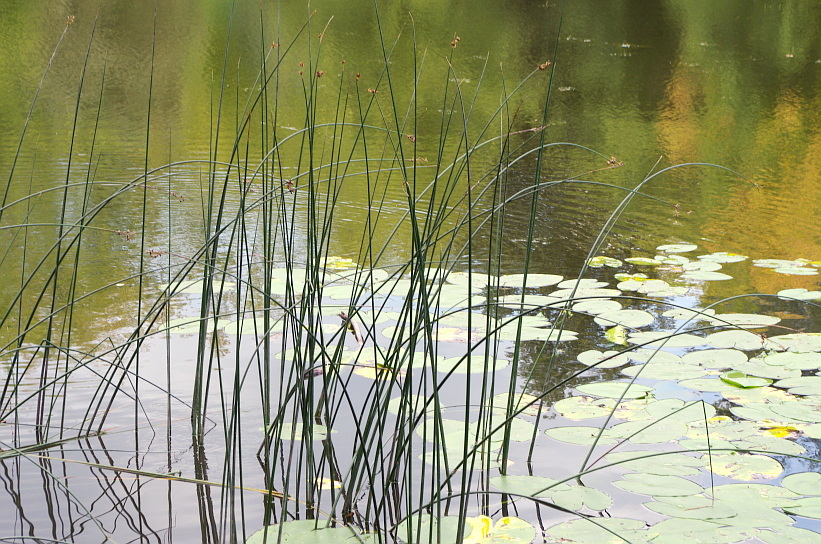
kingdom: Plantae
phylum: Tracheophyta
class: Liliopsida
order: Poales
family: Cyperaceae
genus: Schoenoplectus
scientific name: Schoenoplectus lacustris
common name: Common club-rush
